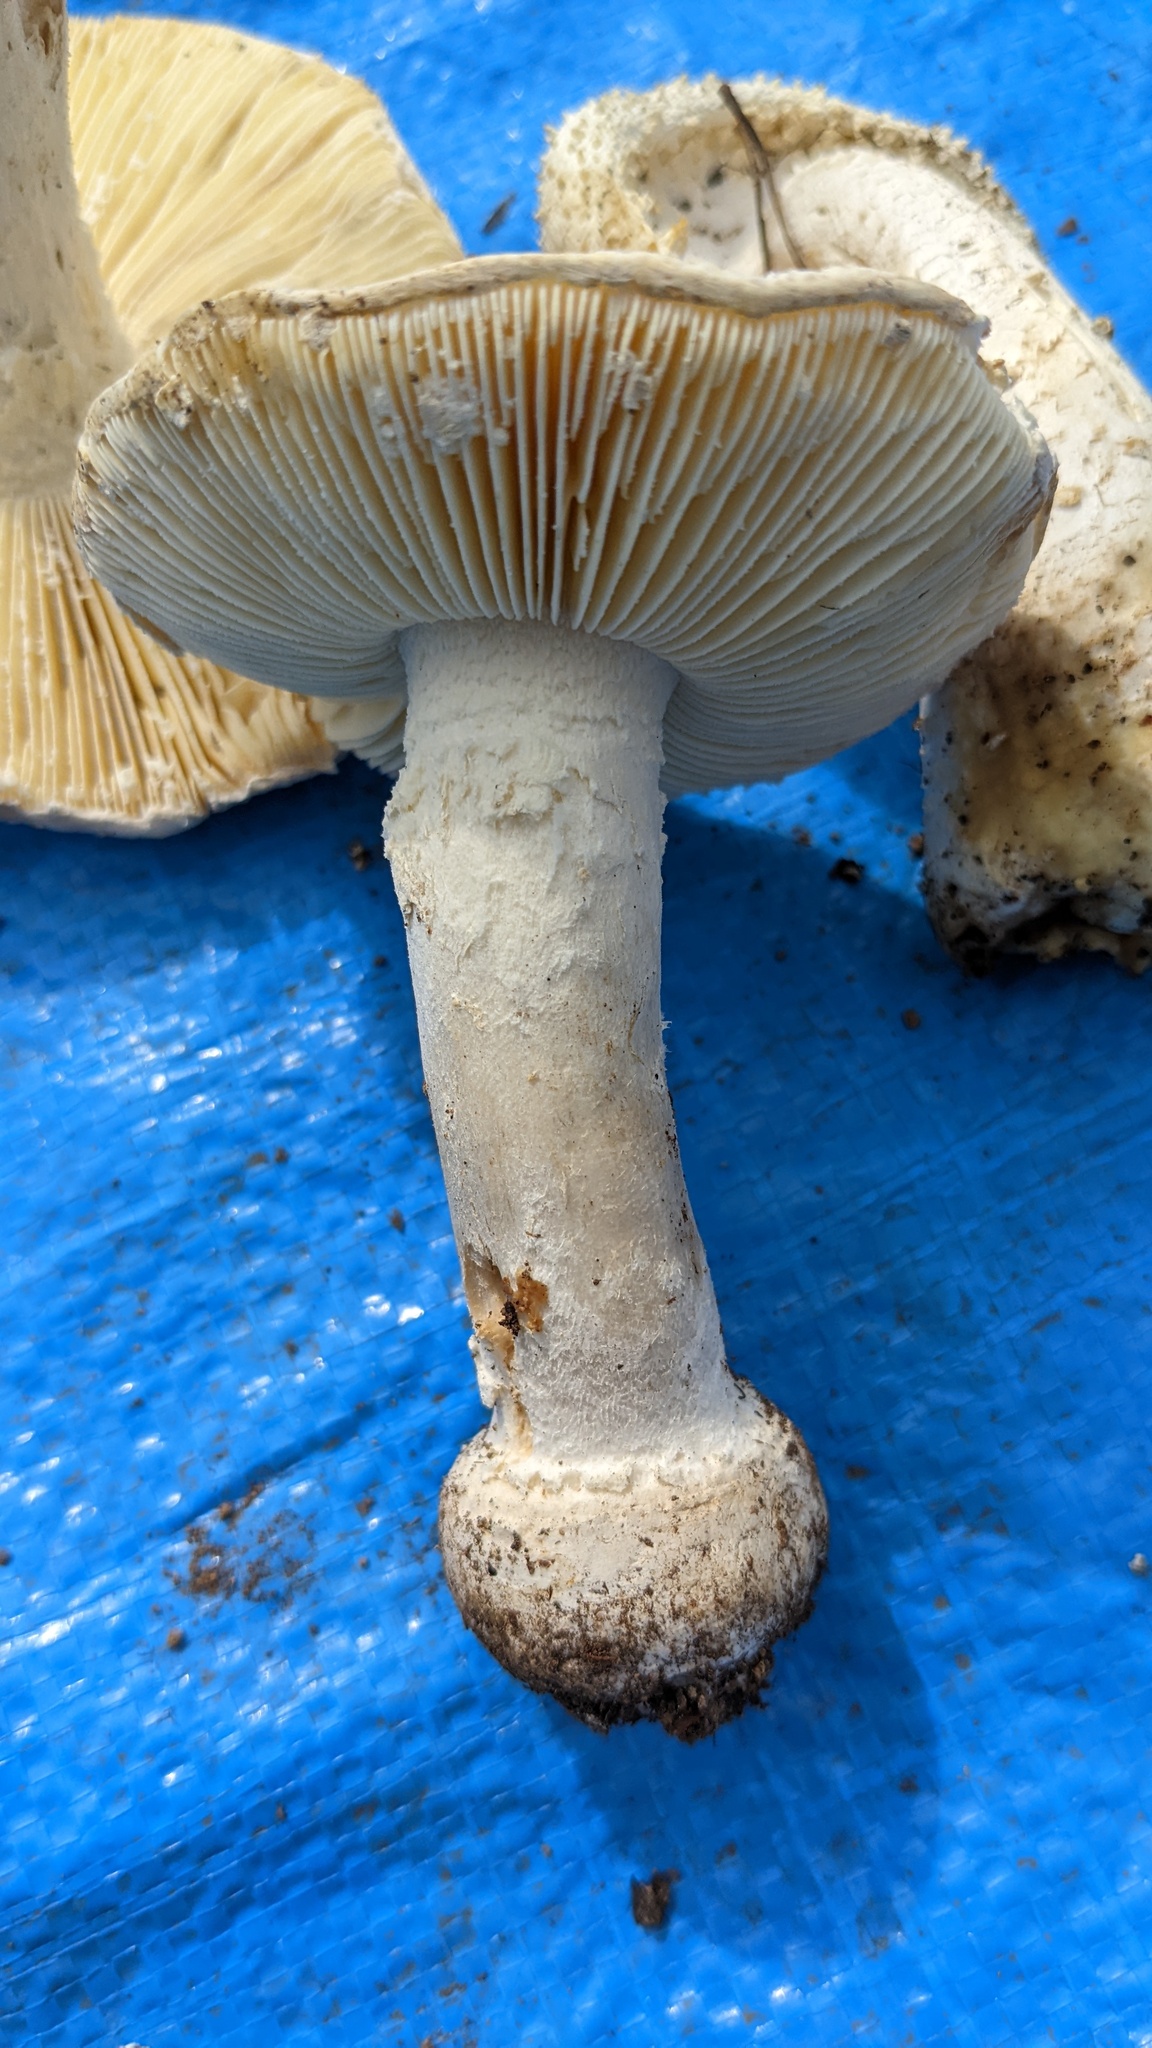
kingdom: Fungi
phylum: Basidiomycota
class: Agaricomycetes
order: Agaricales
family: Amanitaceae
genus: Amanita
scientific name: Amanita castanopsidis
